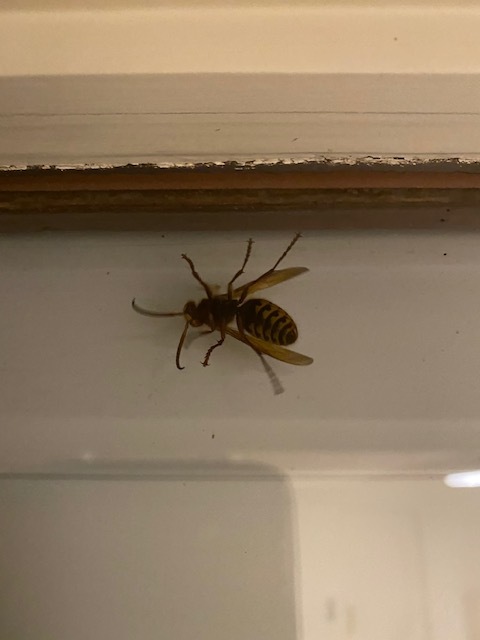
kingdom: Animalia
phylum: Arthropoda
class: Insecta
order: Hymenoptera
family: Vespidae
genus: Vespa
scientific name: Vespa crabro
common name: Hornet
